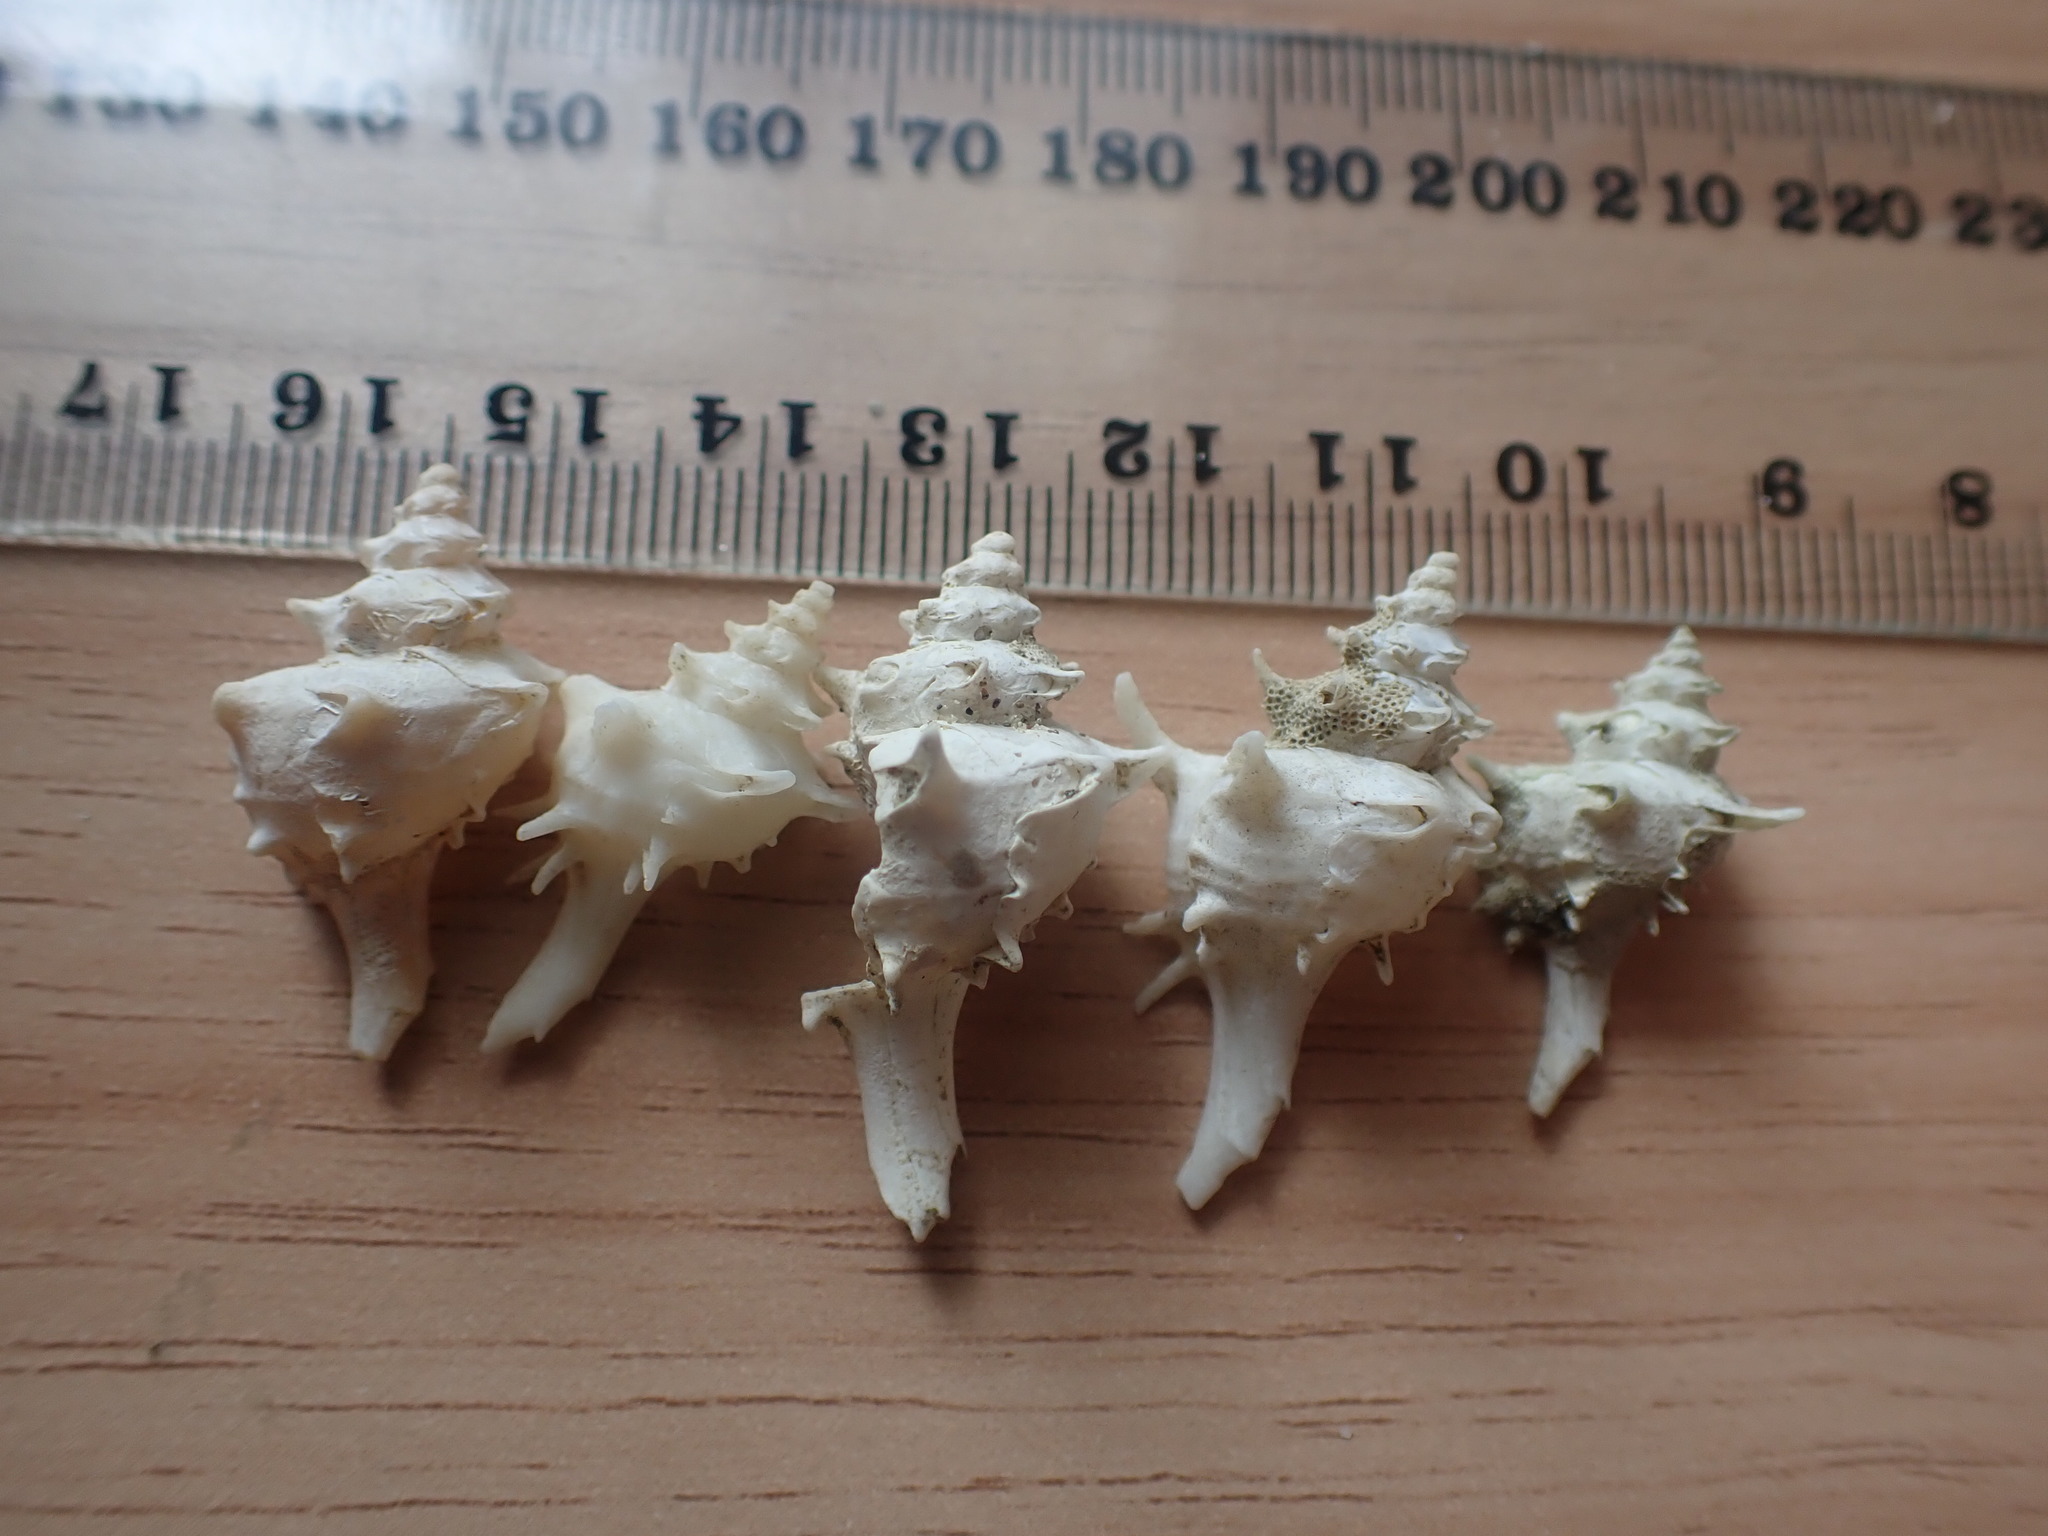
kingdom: Animalia
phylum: Mollusca
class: Gastropoda
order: Neogastropoda
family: Muricidae
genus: Poirieria
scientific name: Poirieria zelandica
